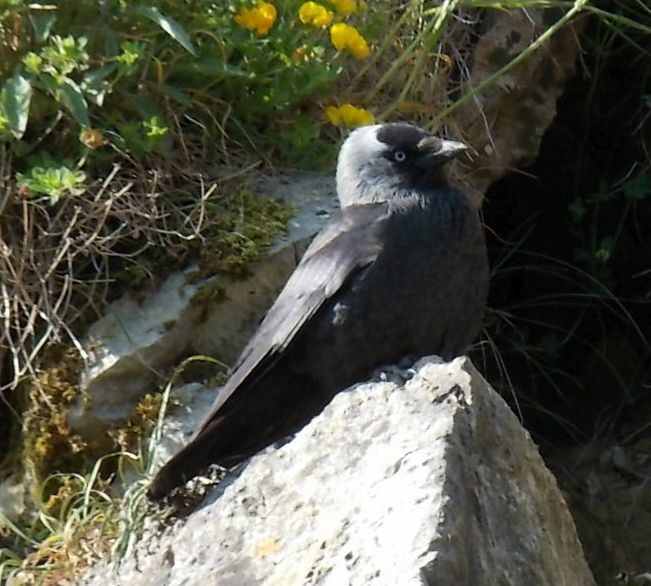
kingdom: Animalia
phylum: Chordata
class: Aves
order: Passeriformes
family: Corvidae
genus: Coloeus
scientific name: Coloeus monedula
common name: Western jackdaw
